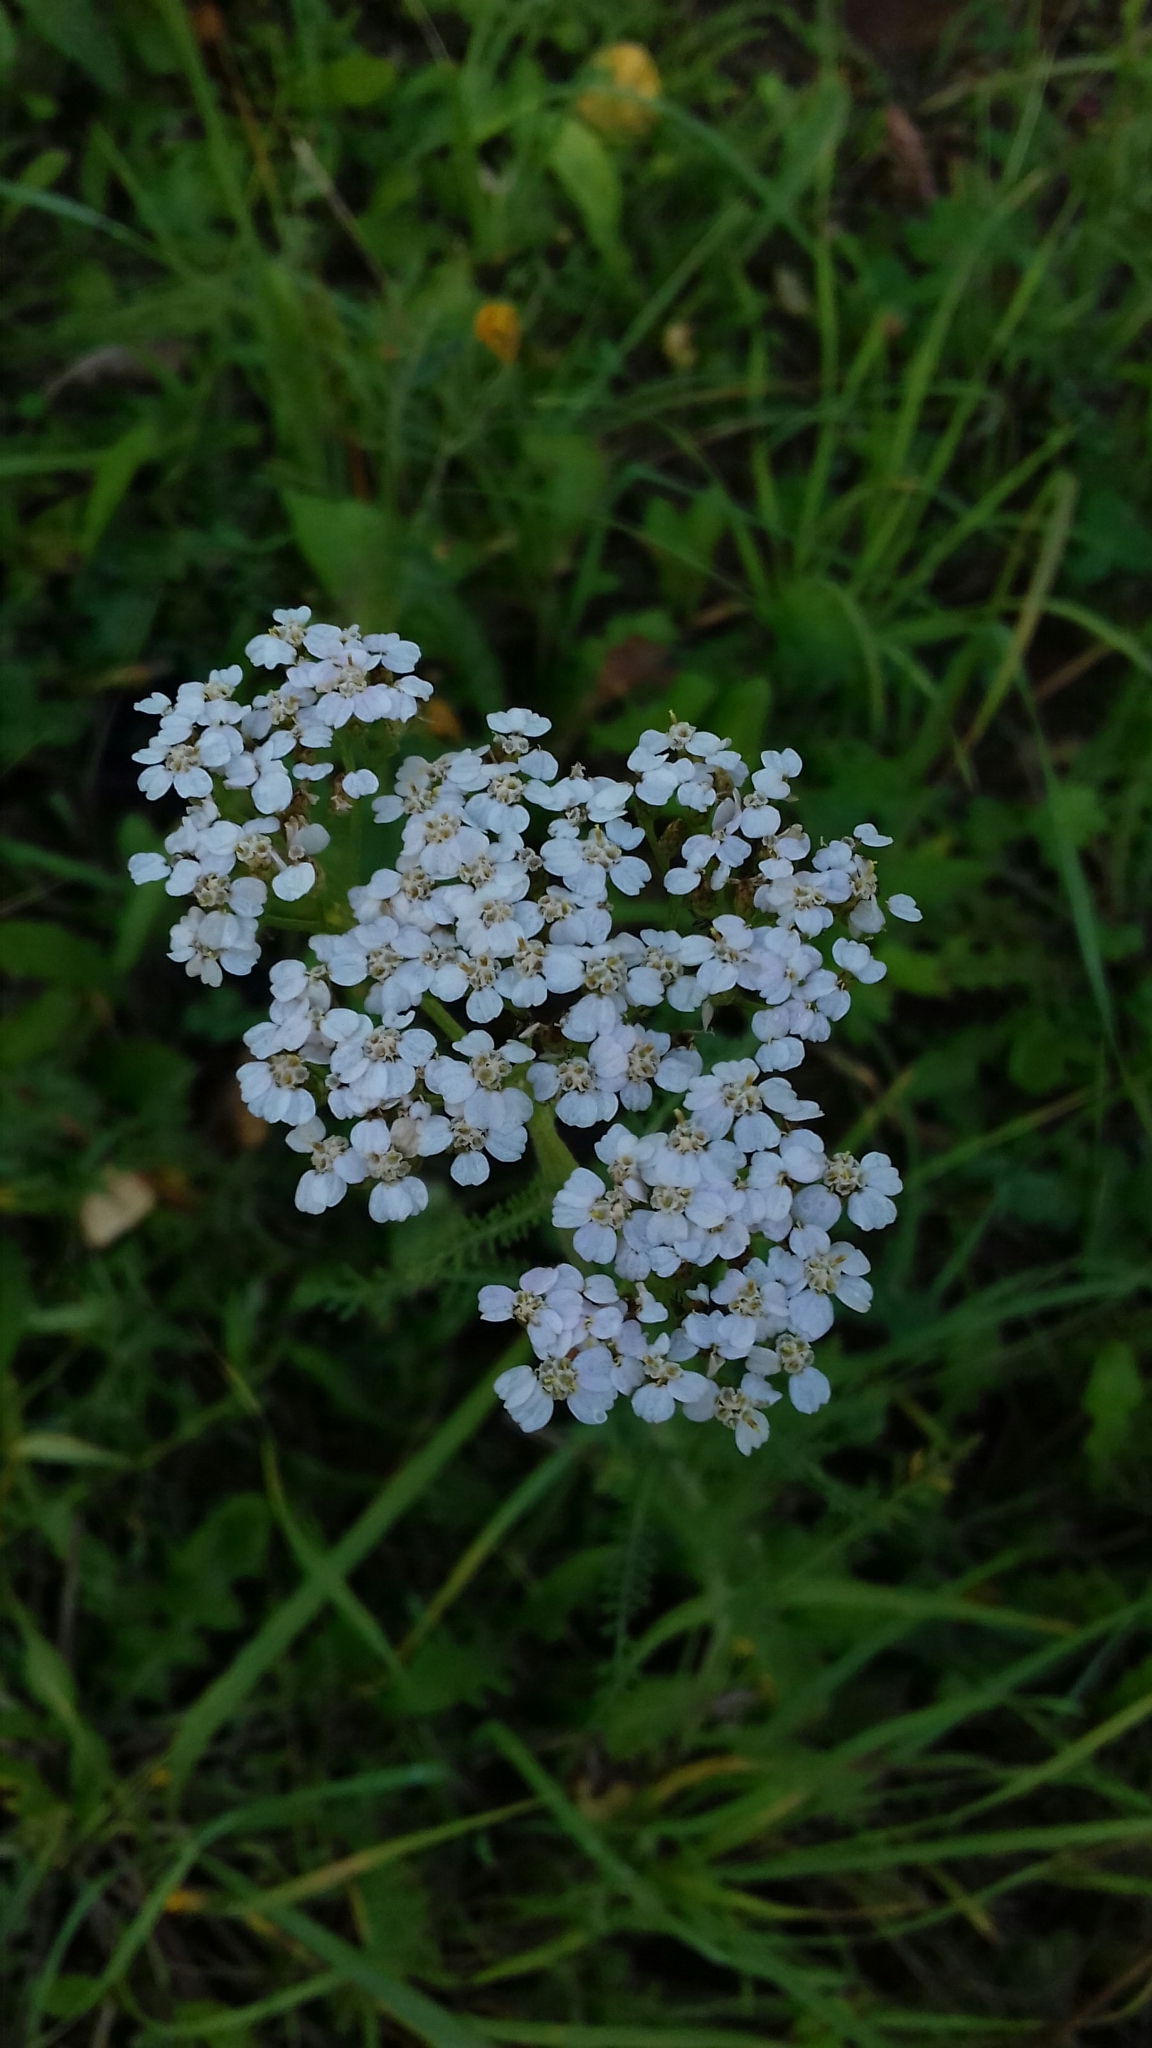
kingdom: Plantae
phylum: Tracheophyta
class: Magnoliopsida
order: Asterales
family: Asteraceae
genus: Achillea
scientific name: Achillea millefolium
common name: Yarrow
